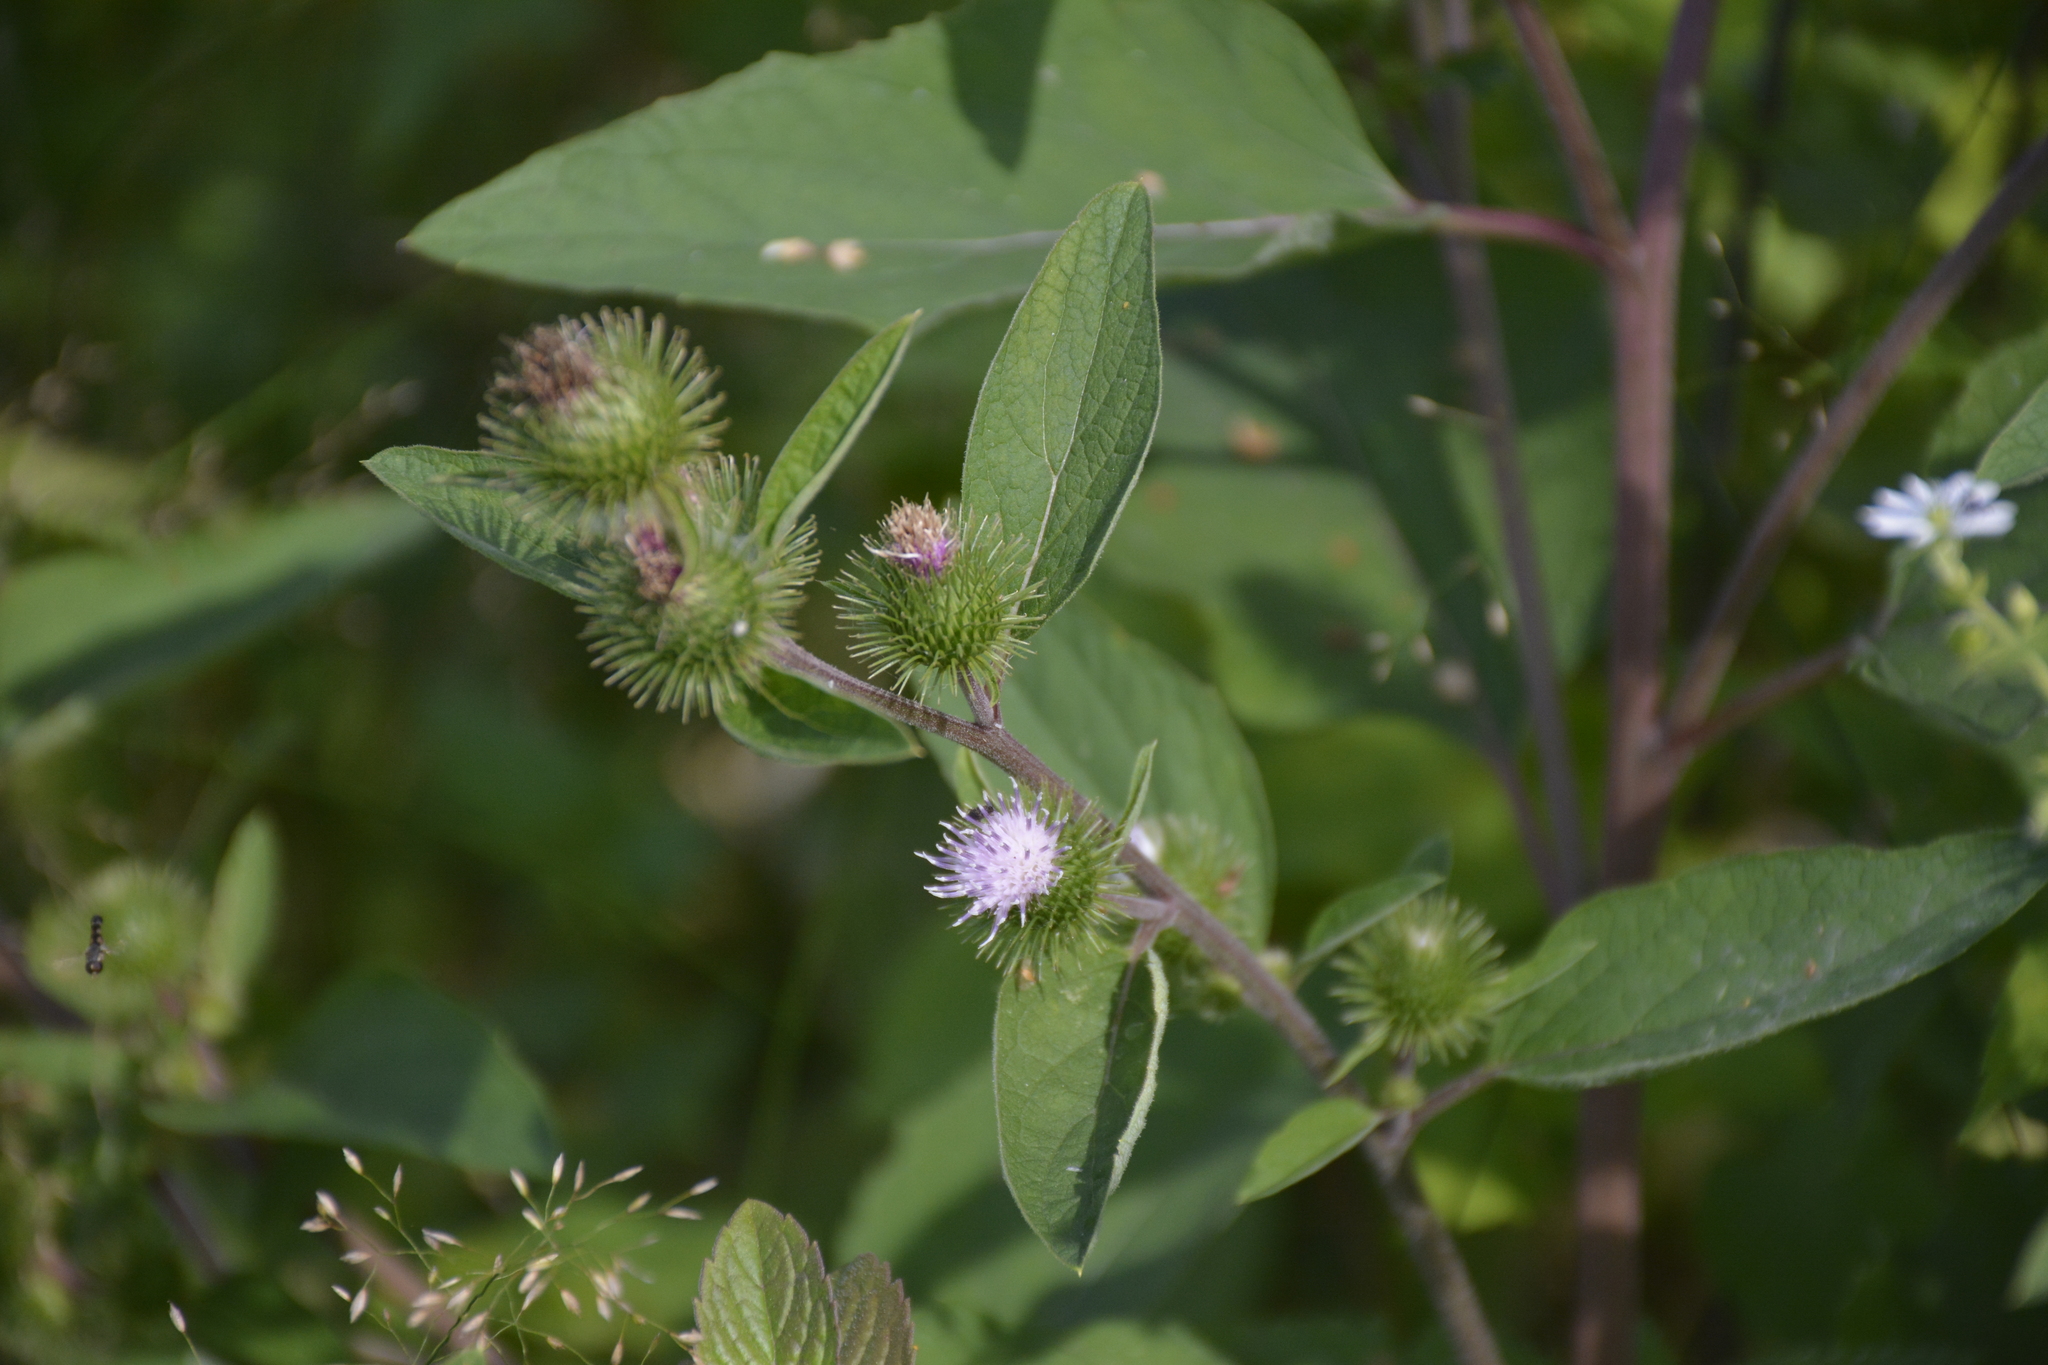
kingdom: Plantae
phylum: Tracheophyta
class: Magnoliopsida
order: Asterales
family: Asteraceae
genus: Arctium
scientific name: Arctium minus
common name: Lesser burdock
